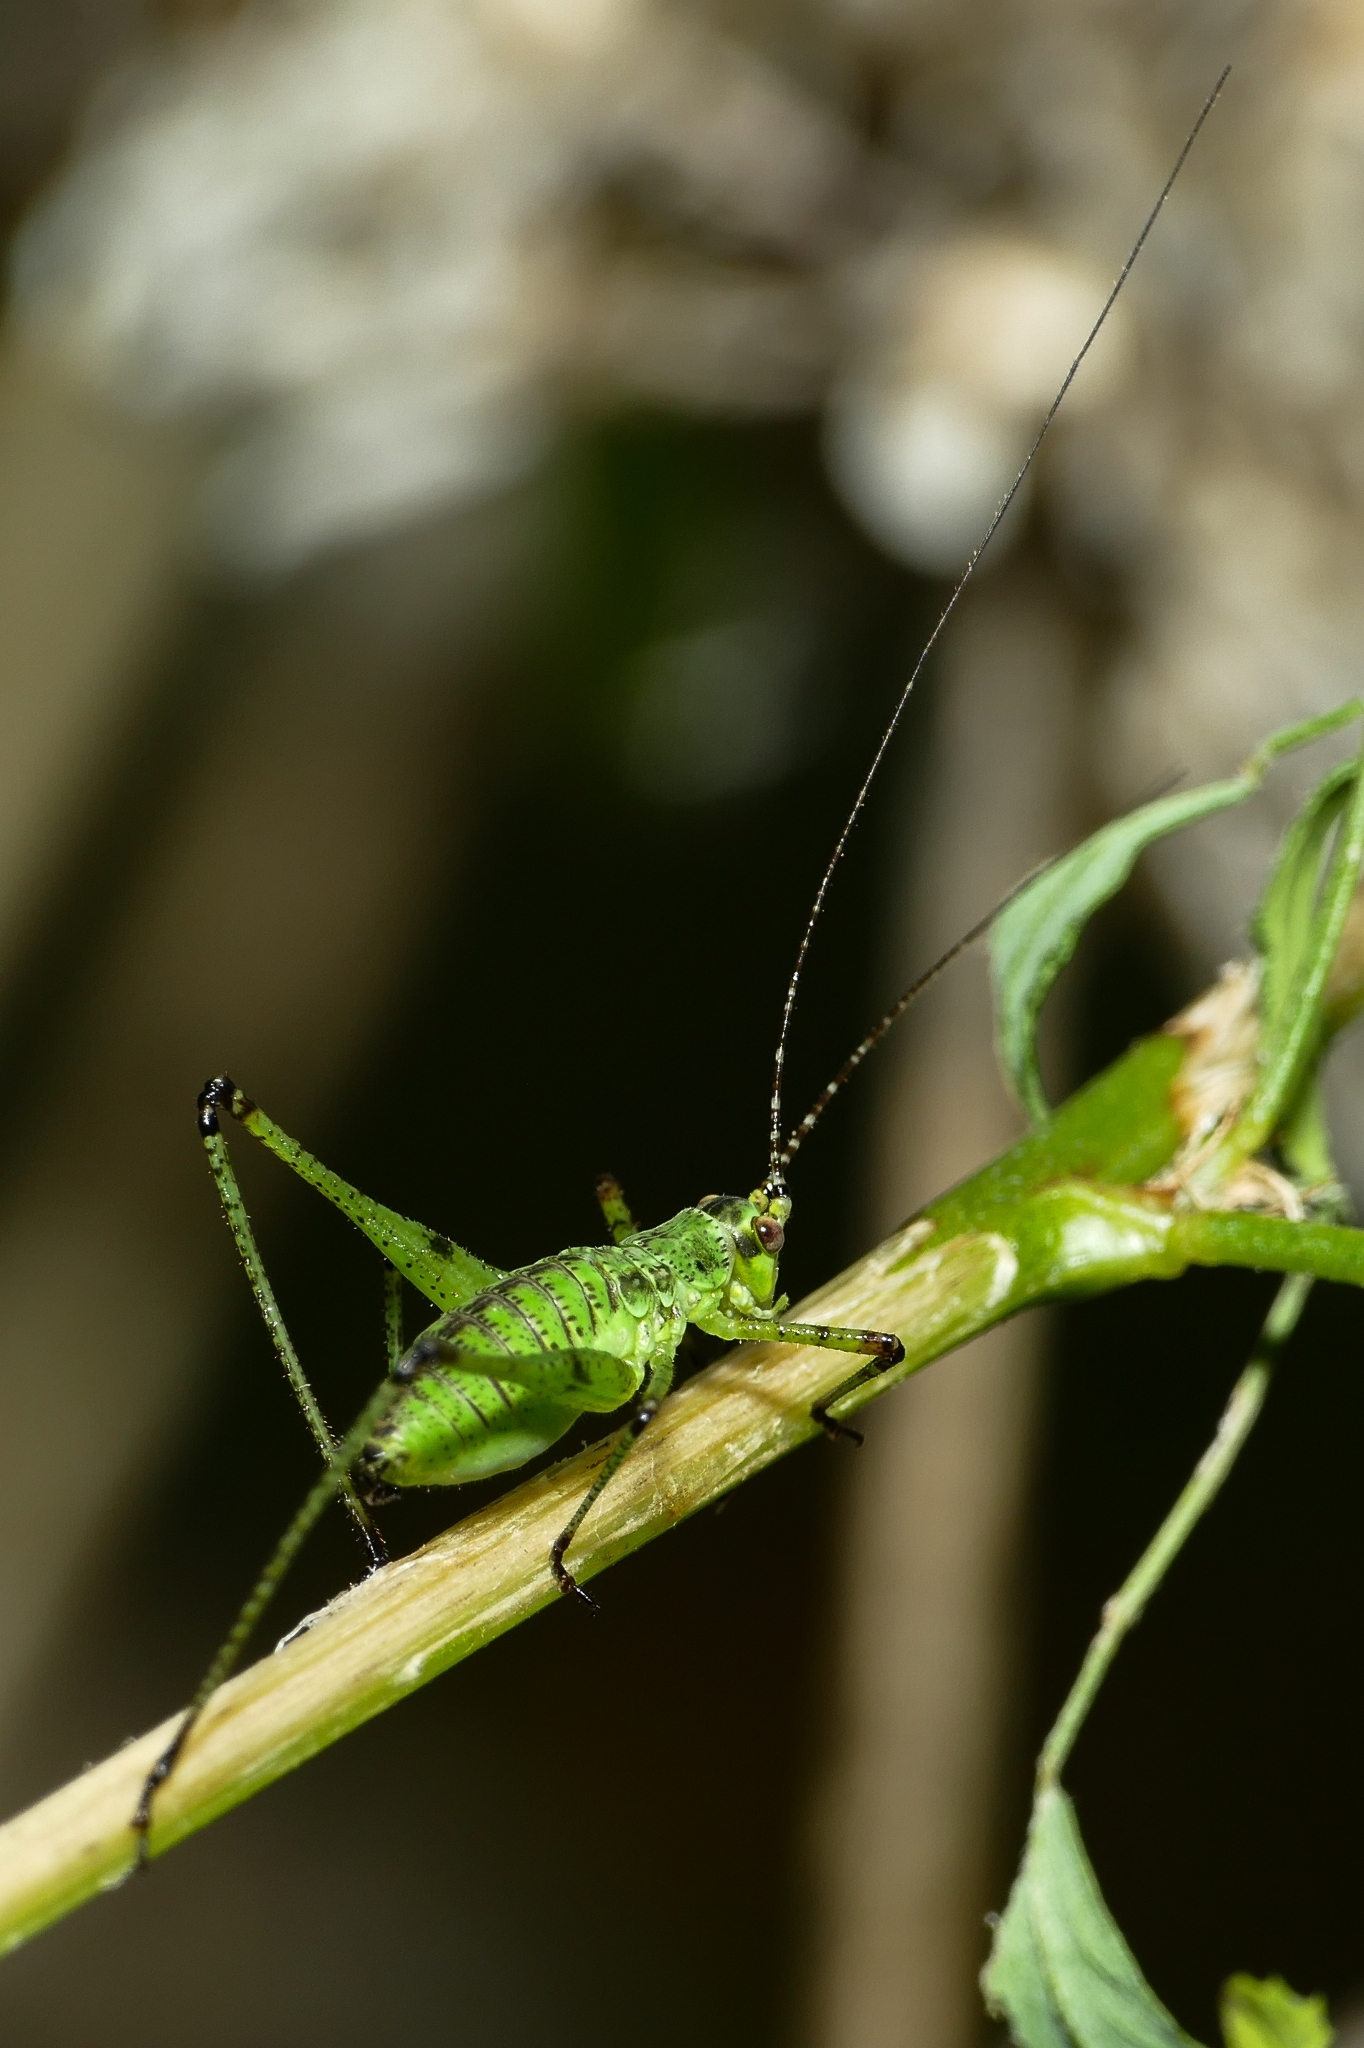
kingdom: Animalia
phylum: Arthropoda
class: Insecta
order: Orthoptera
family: Tettigoniidae
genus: Phaneroptera
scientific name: Phaneroptera nana
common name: Southern sickle bush-cricket
